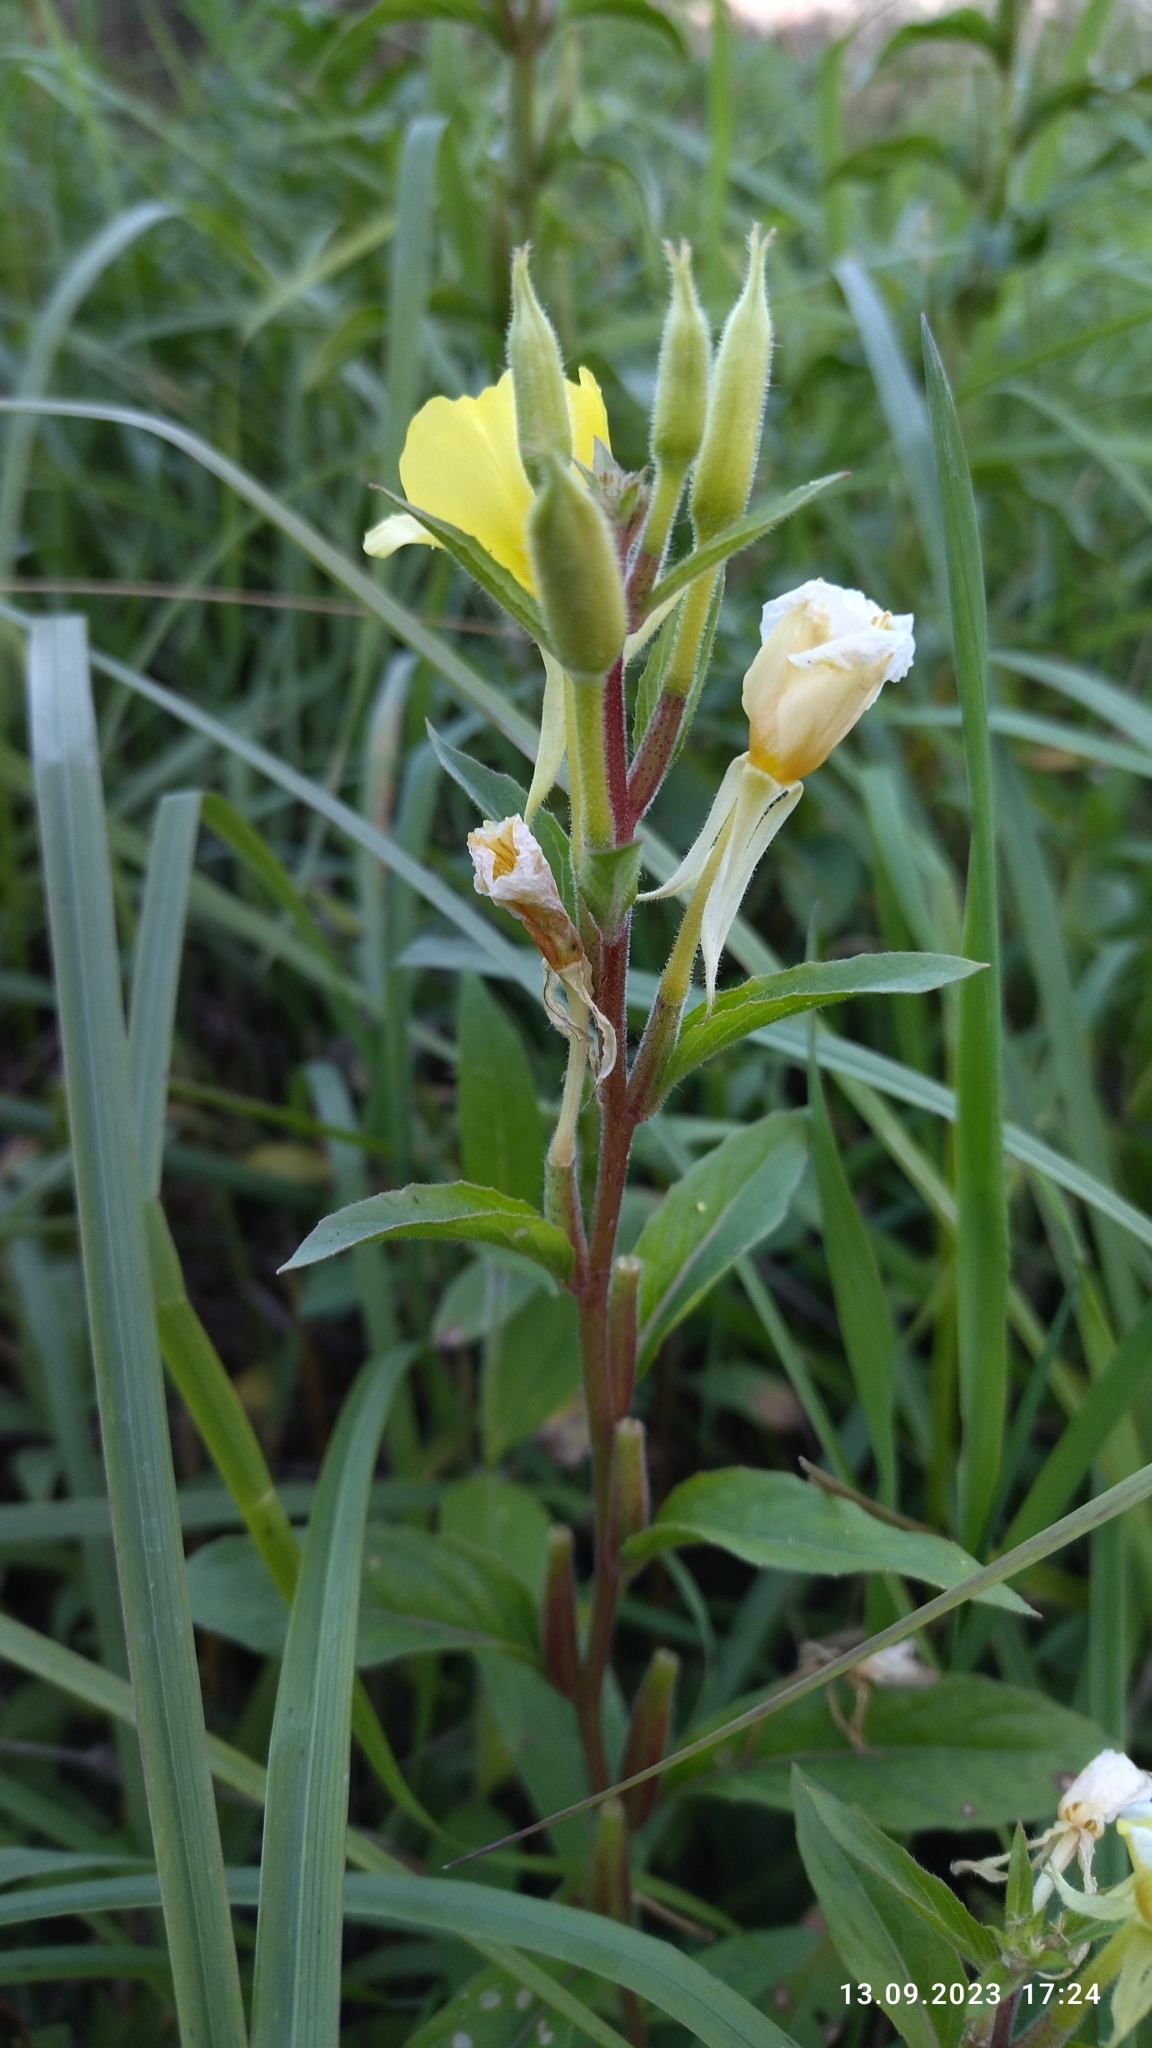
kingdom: Plantae
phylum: Tracheophyta
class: Magnoliopsida
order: Myrtales
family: Onagraceae
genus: Oenothera
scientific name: Oenothera rubricaulis
